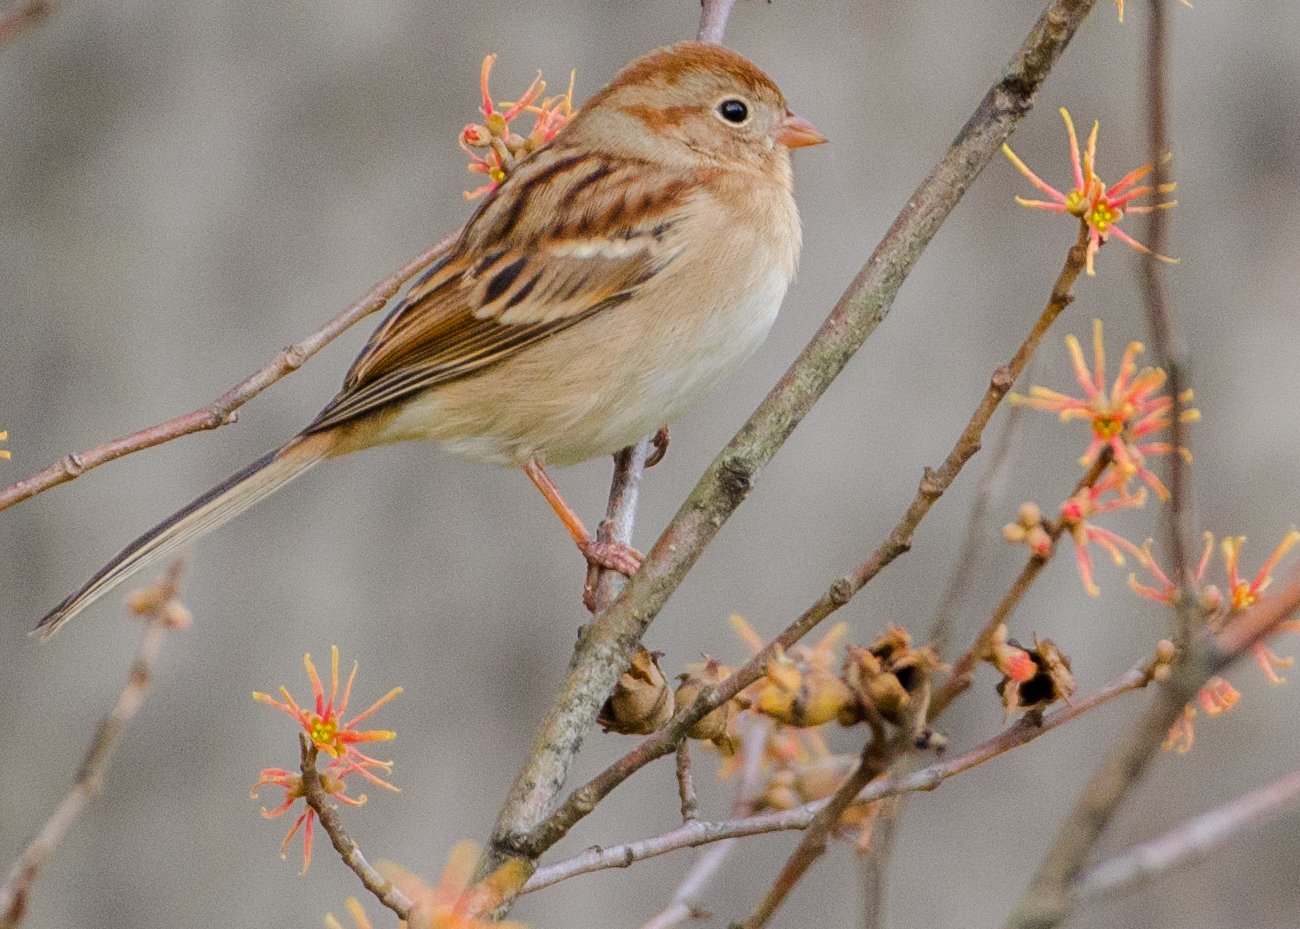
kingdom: Animalia
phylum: Chordata
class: Aves
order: Passeriformes
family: Passerellidae
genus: Spizella
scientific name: Spizella pusilla
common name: Field sparrow
